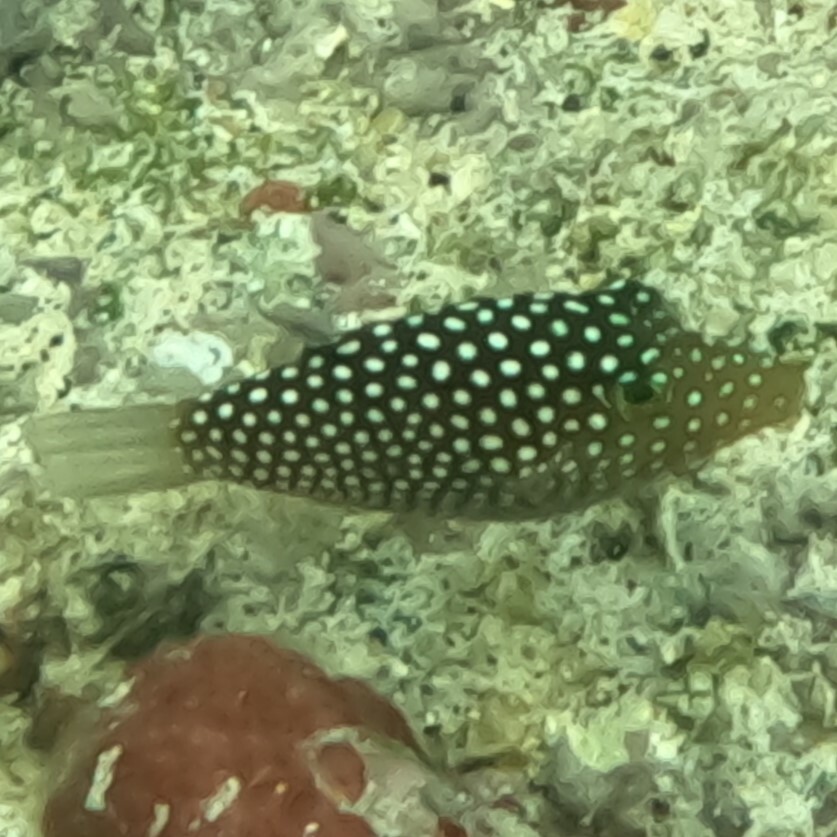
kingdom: Animalia
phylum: Chordata
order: Tetraodontiformes
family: Tetraodontidae
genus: Canthigaster
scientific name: Canthigaster jactator
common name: Hawaiian whitespotted toby
